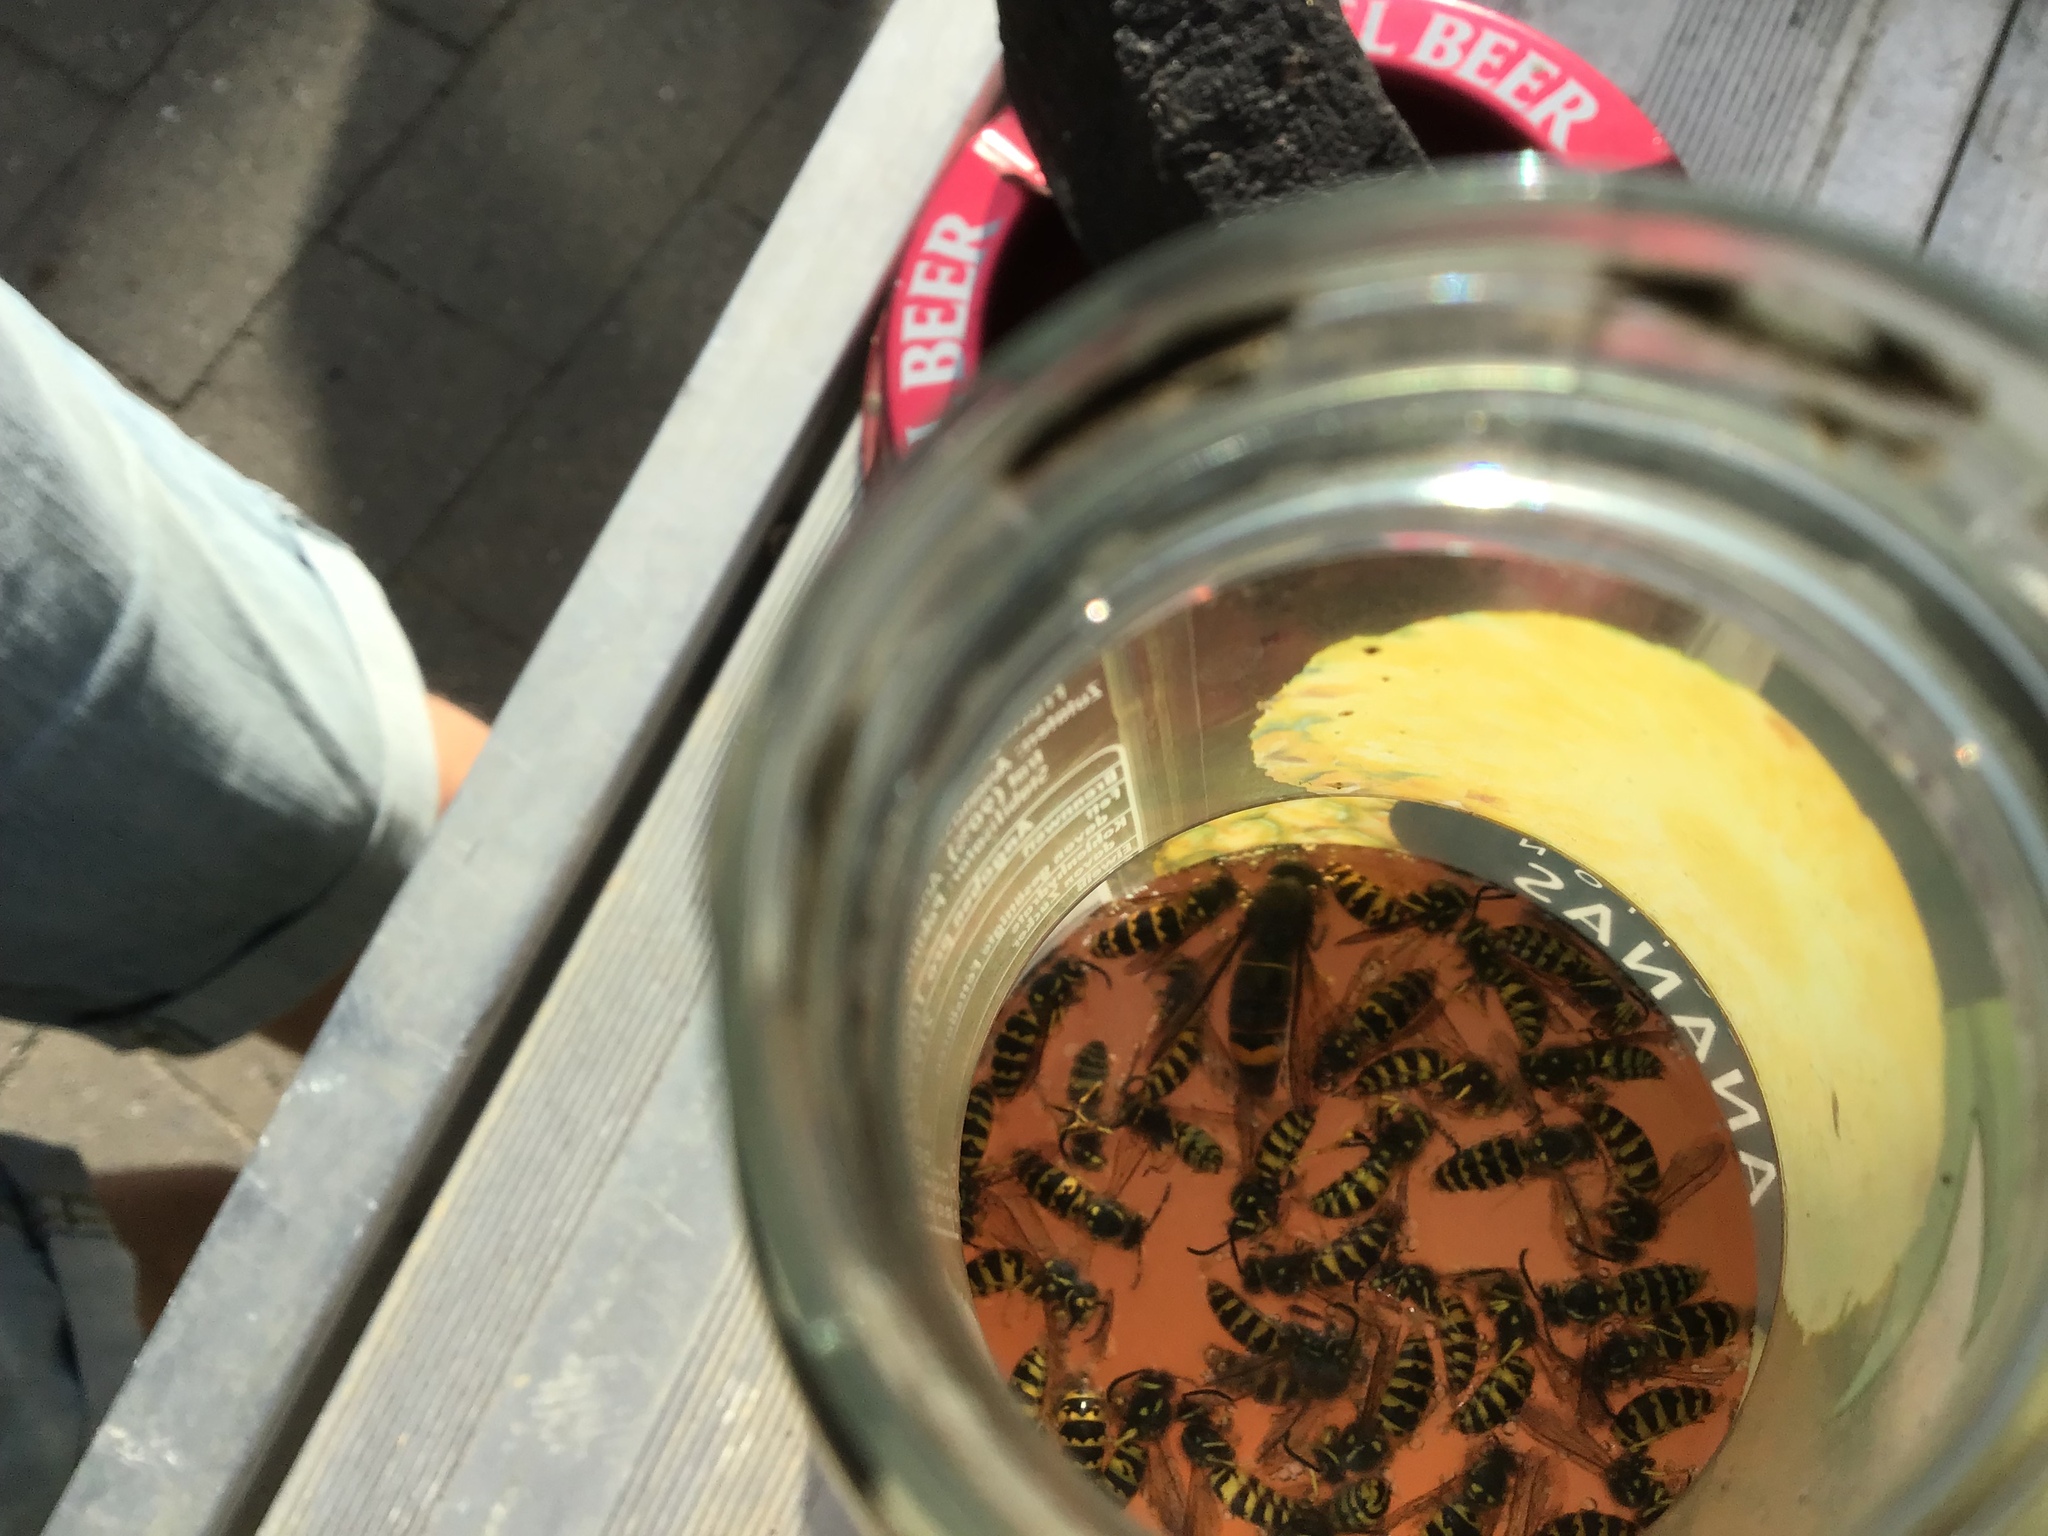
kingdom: Animalia
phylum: Arthropoda
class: Insecta
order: Hymenoptera
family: Vespidae
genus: Vespa
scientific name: Vespa velutina
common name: Asian hornet
